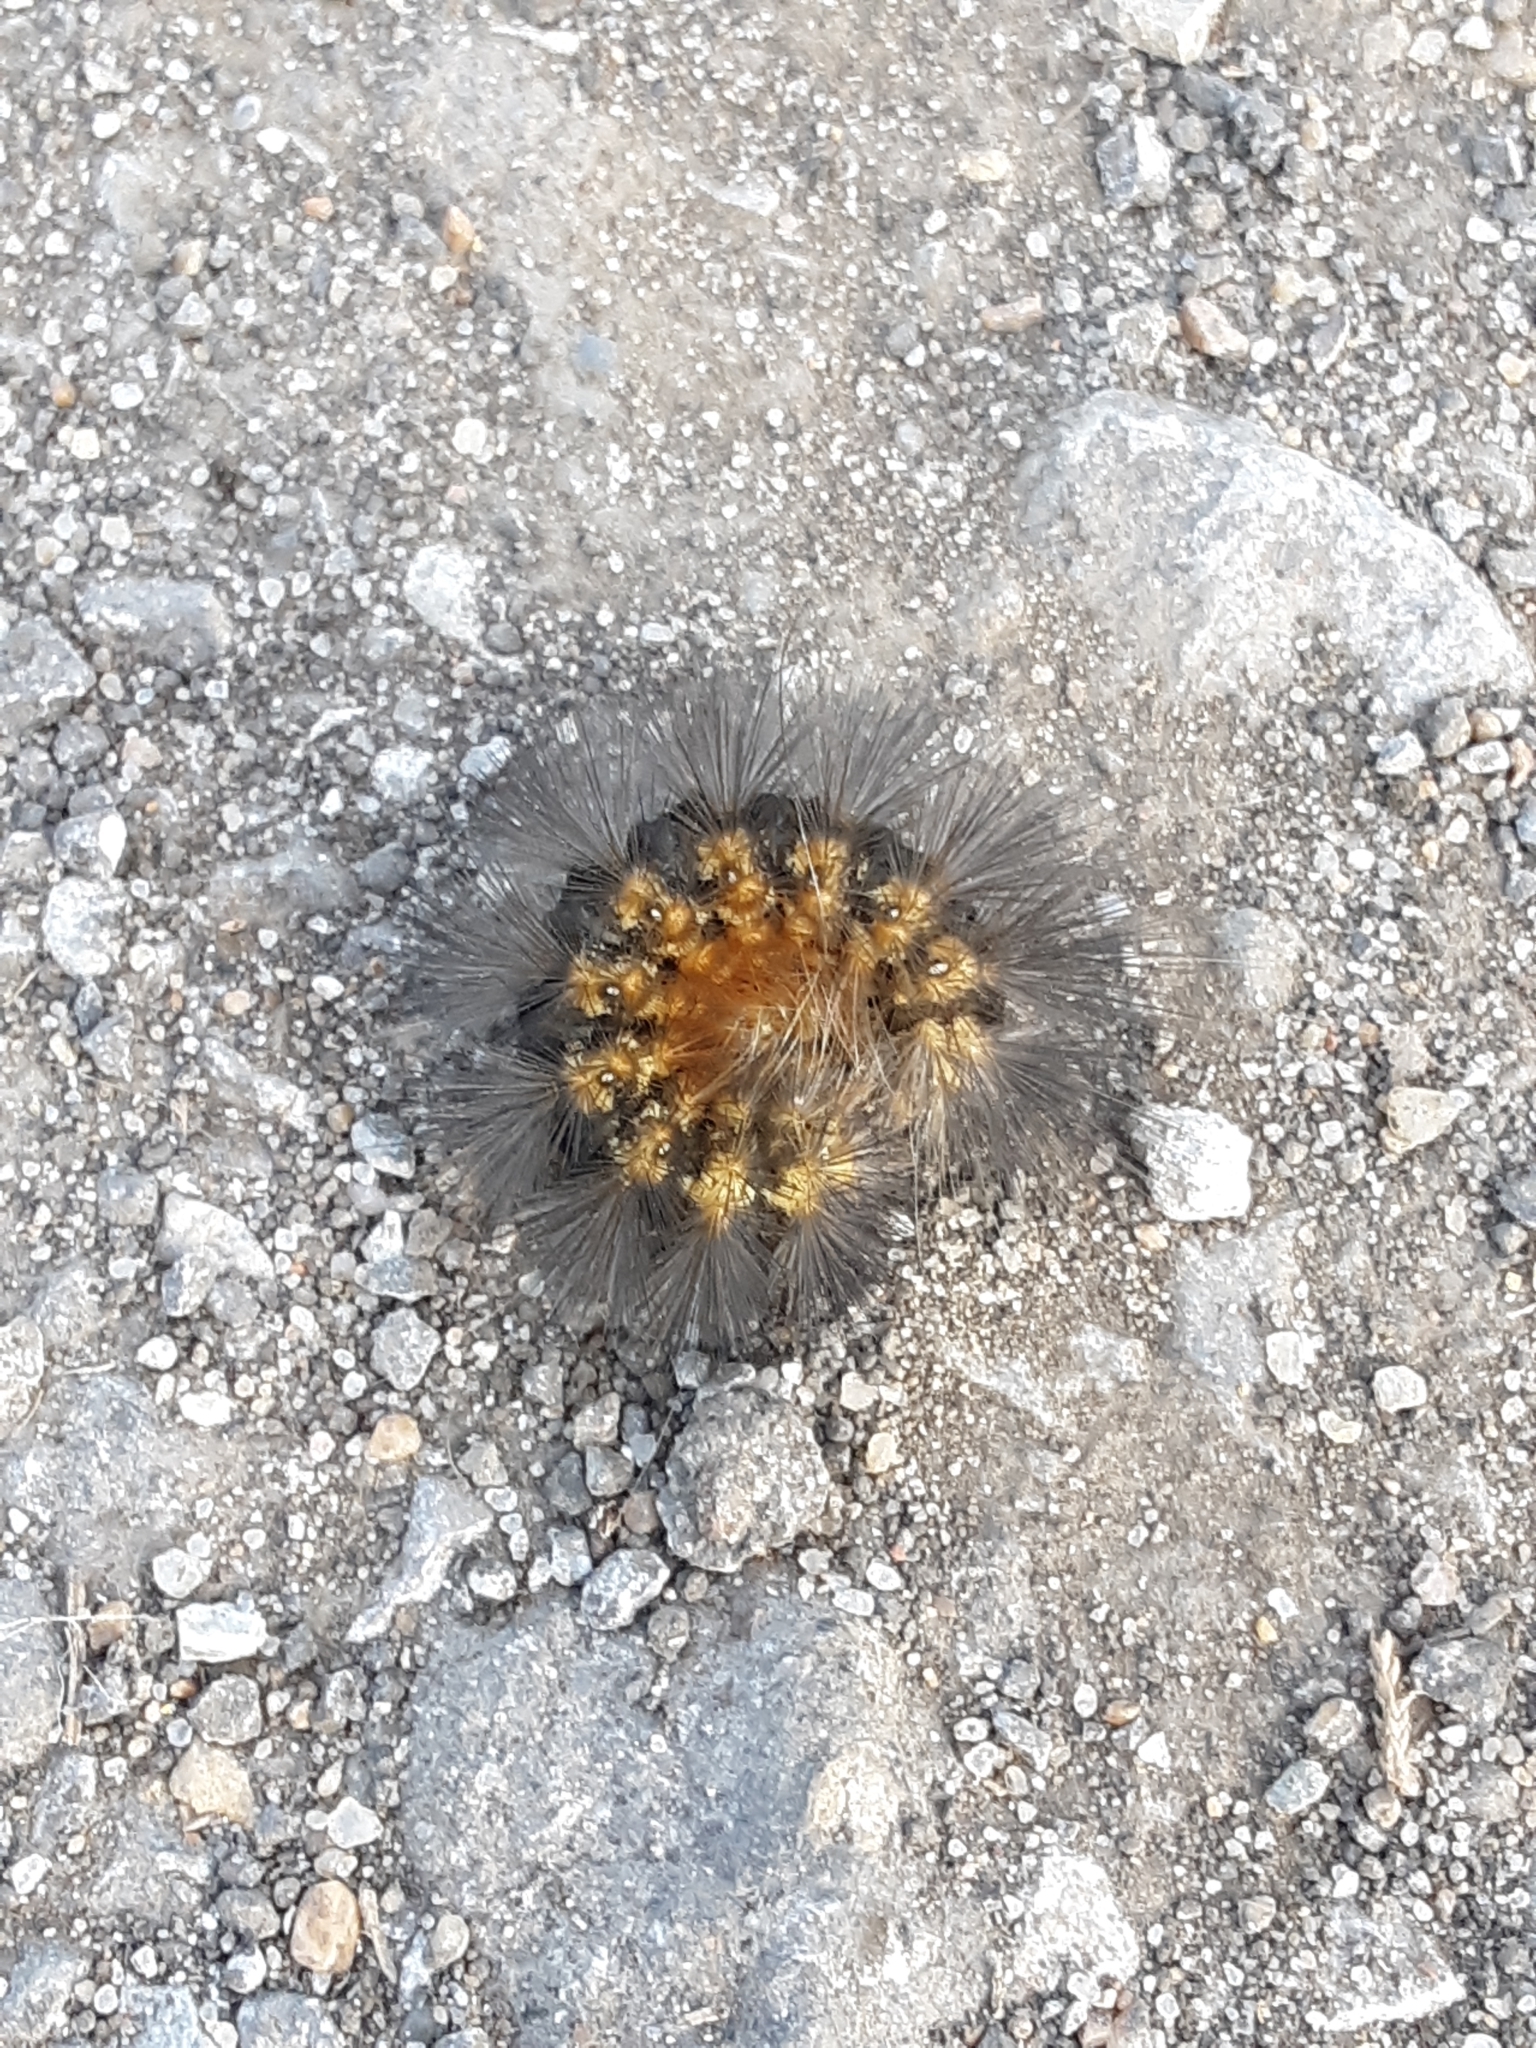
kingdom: Animalia
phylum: Arthropoda
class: Insecta
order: Lepidoptera
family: Erebidae
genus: Estigmene
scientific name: Estigmene acrea
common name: Salt marsh moth
